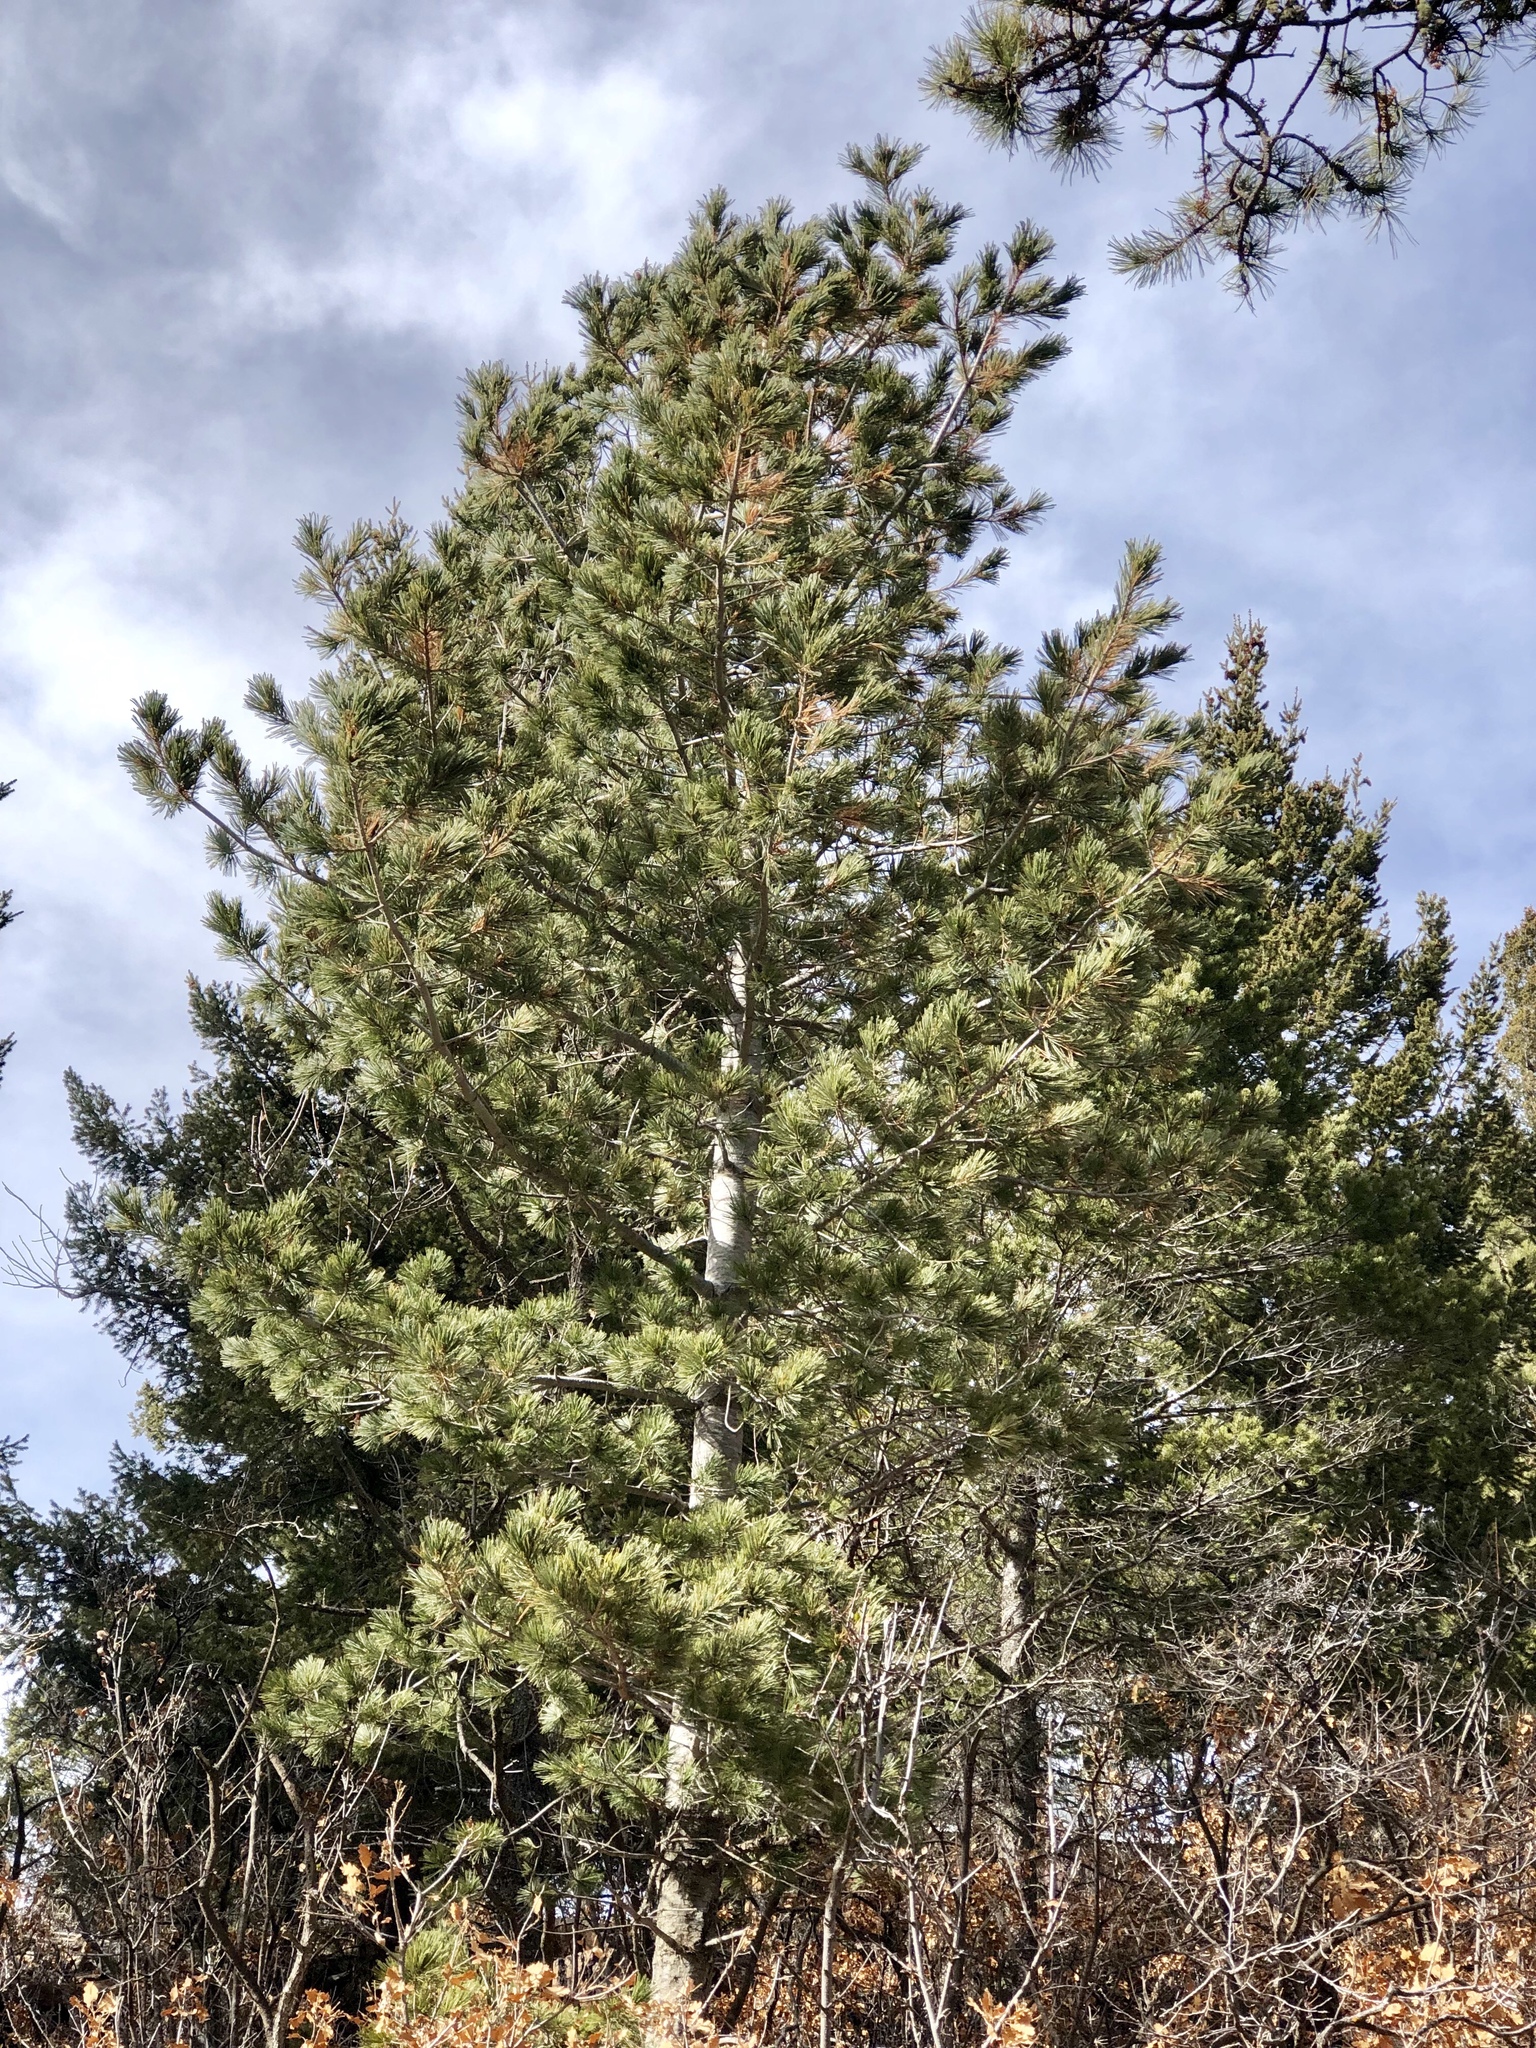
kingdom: Plantae
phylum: Tracheophyta
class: Pinopsida
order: Pinales
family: Pinaceae
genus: Pinus
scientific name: Pinus strobiformis
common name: Southwestern white pine
